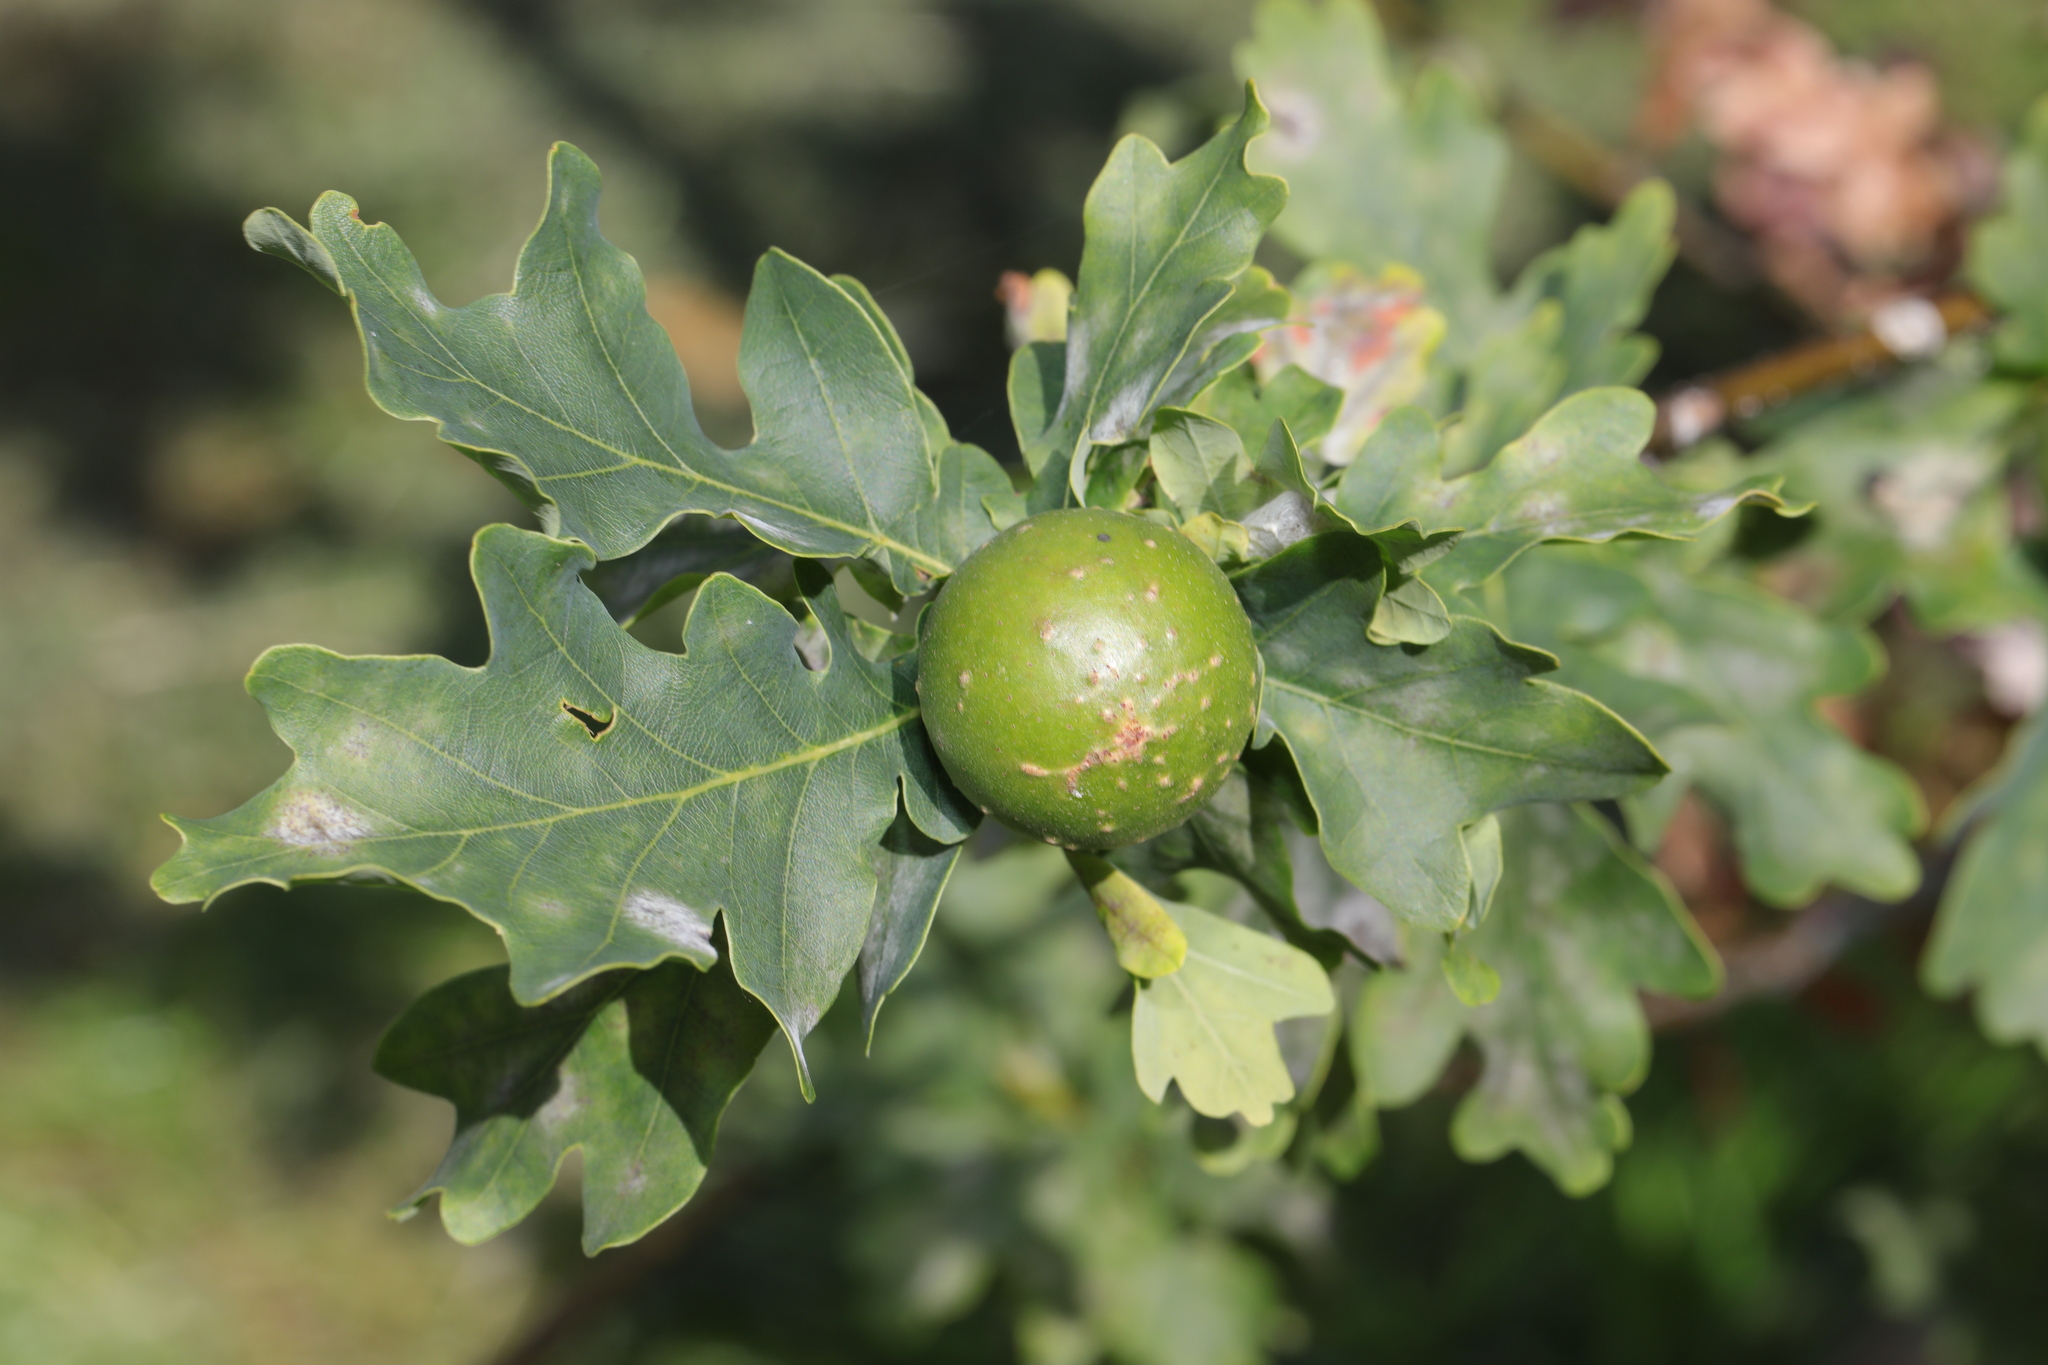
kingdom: Animalia
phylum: Arthropoda
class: Insecta
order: Hymenoptera
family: Cynipidae
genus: Andricus
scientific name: Andricus kollari
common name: Marble gall
